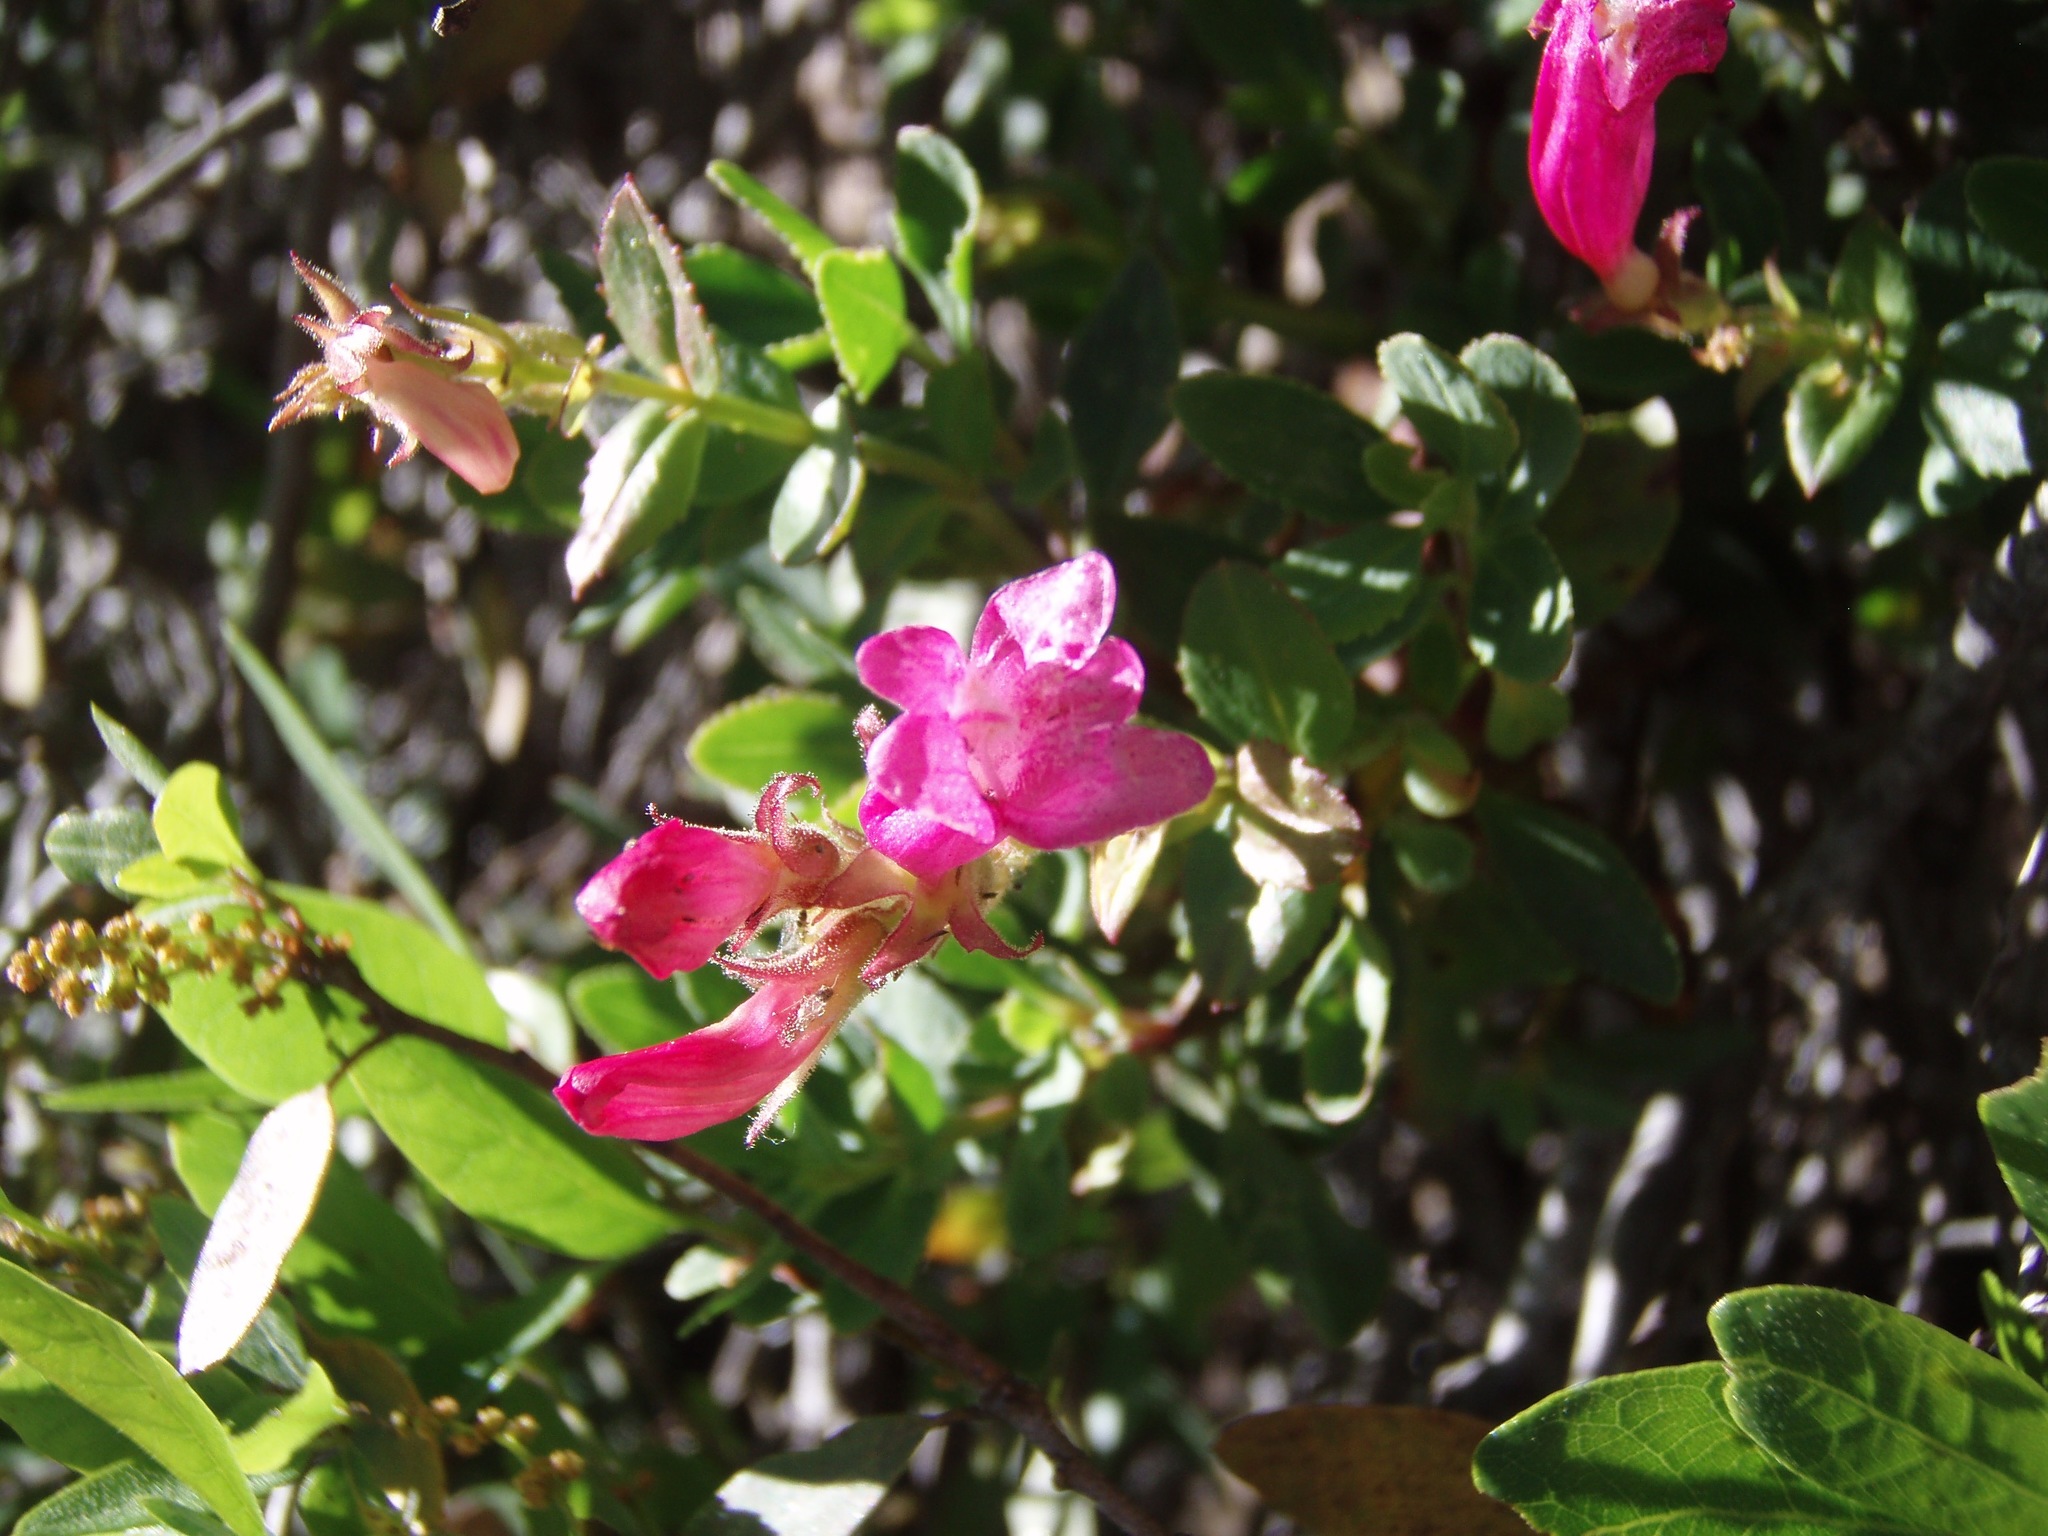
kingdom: Plantae
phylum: Tracheophyta
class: Magnoliopsida
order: Lamiales
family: Plantaginaceae
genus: Penstemon
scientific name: Penstemon newberryi
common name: Mountain-pride
